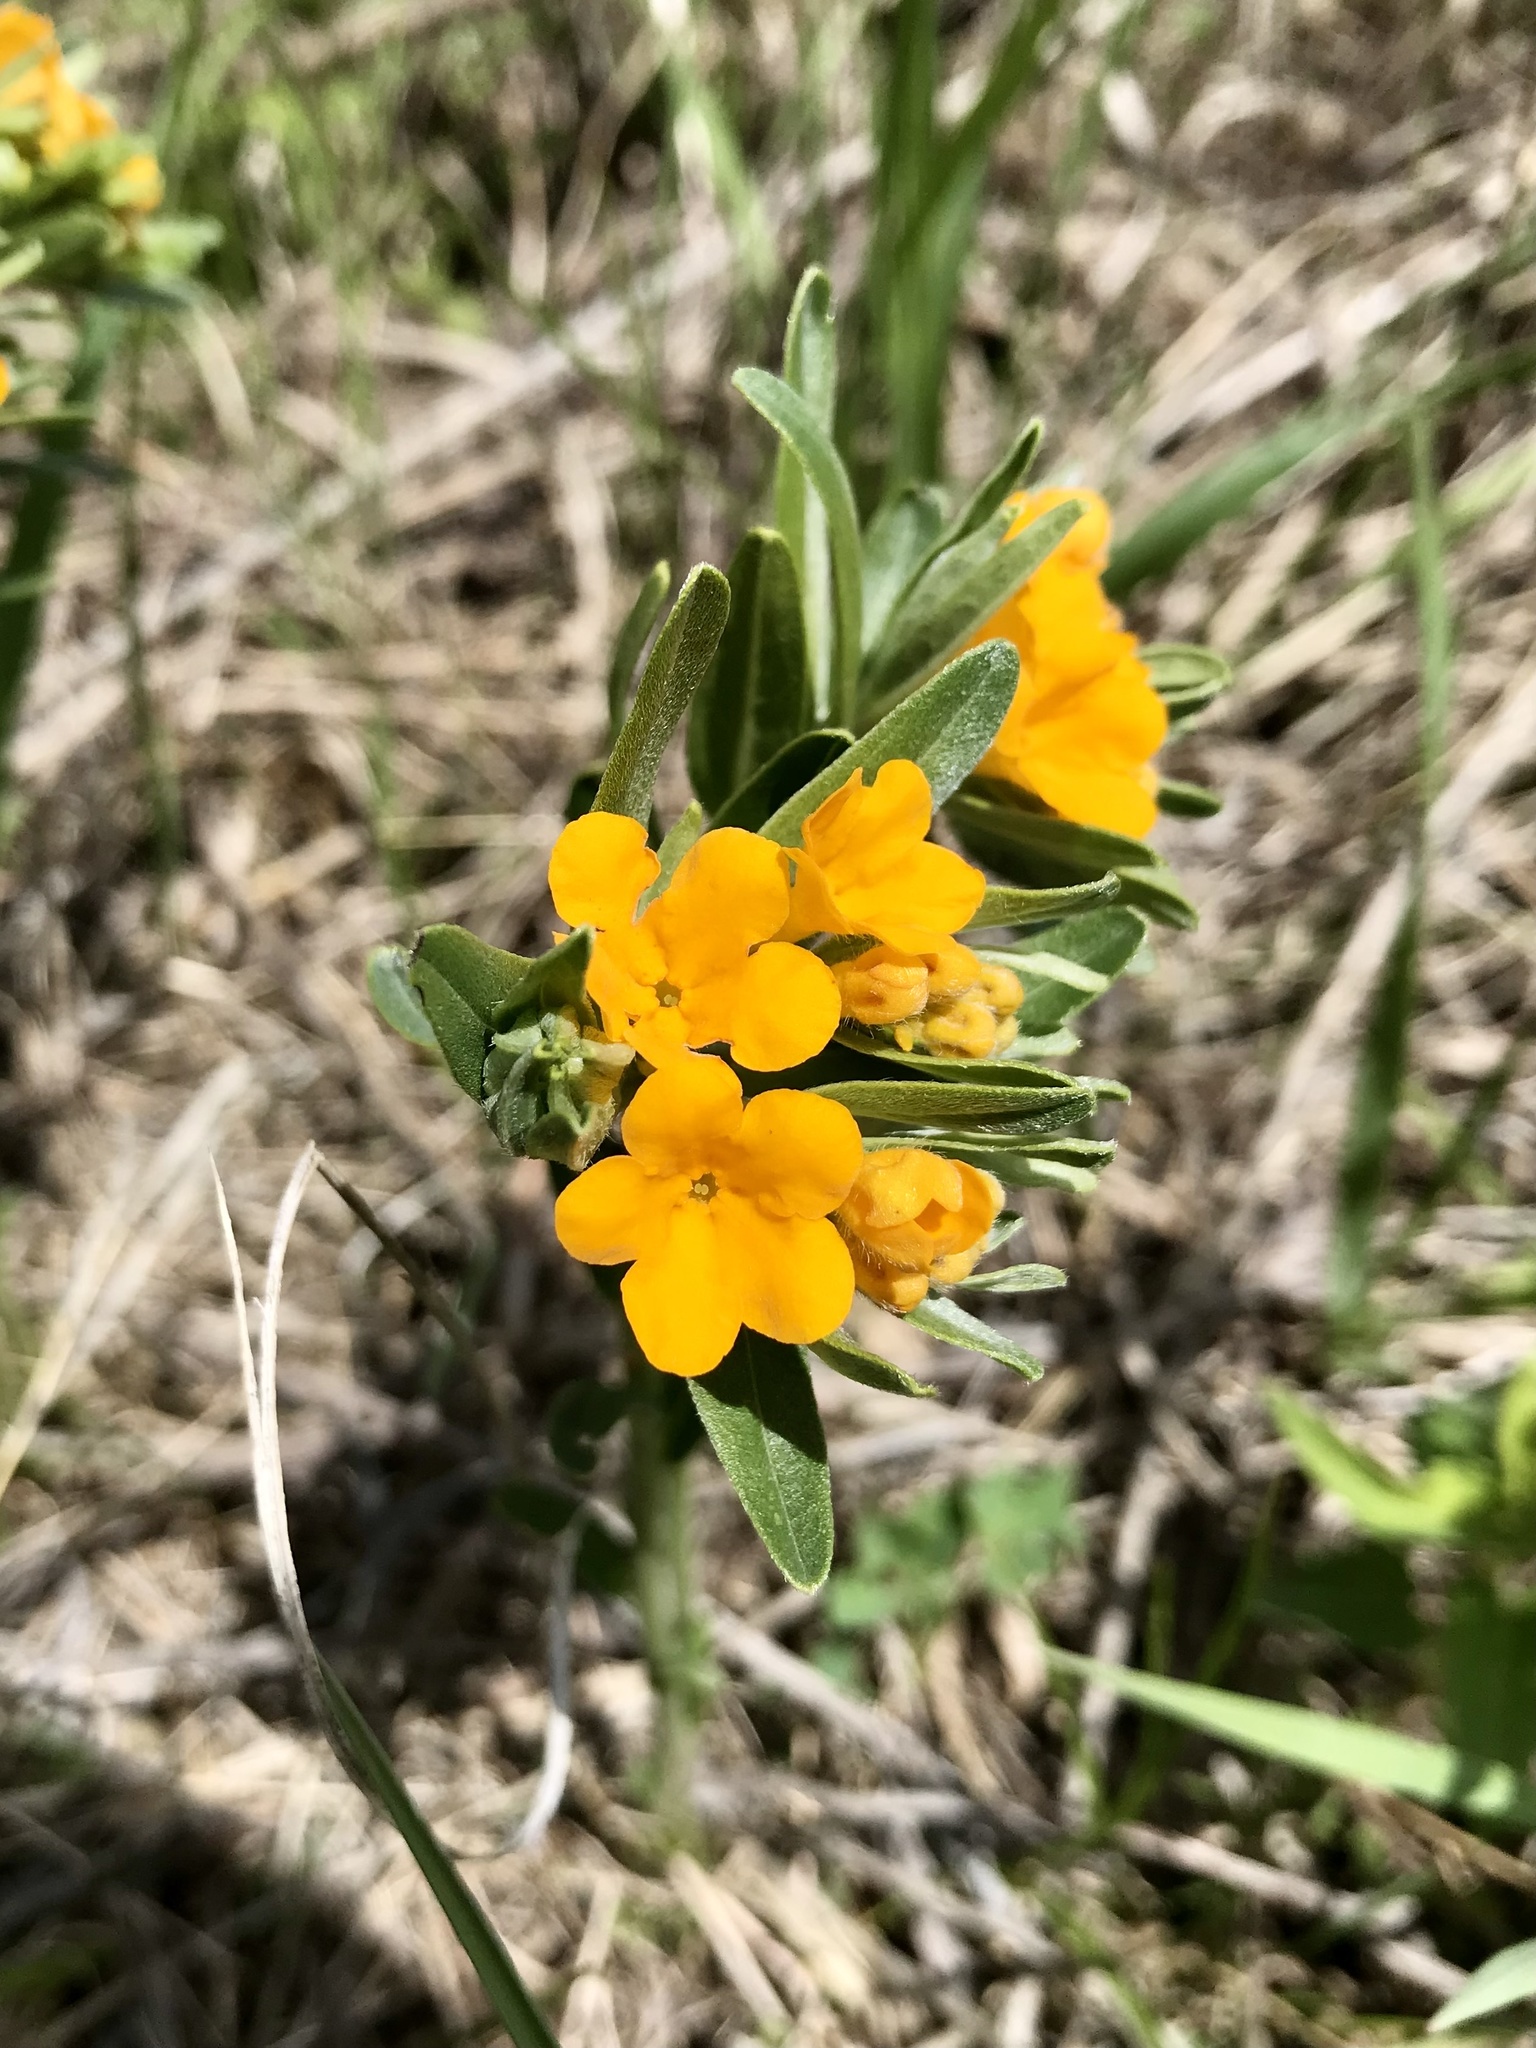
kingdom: Plantae
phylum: Tracheophyta
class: Magnoliopsida
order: Boraginales
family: Boraginaceae
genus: Lithospermum
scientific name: Lithospermum canescens
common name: Hoary puccoon
